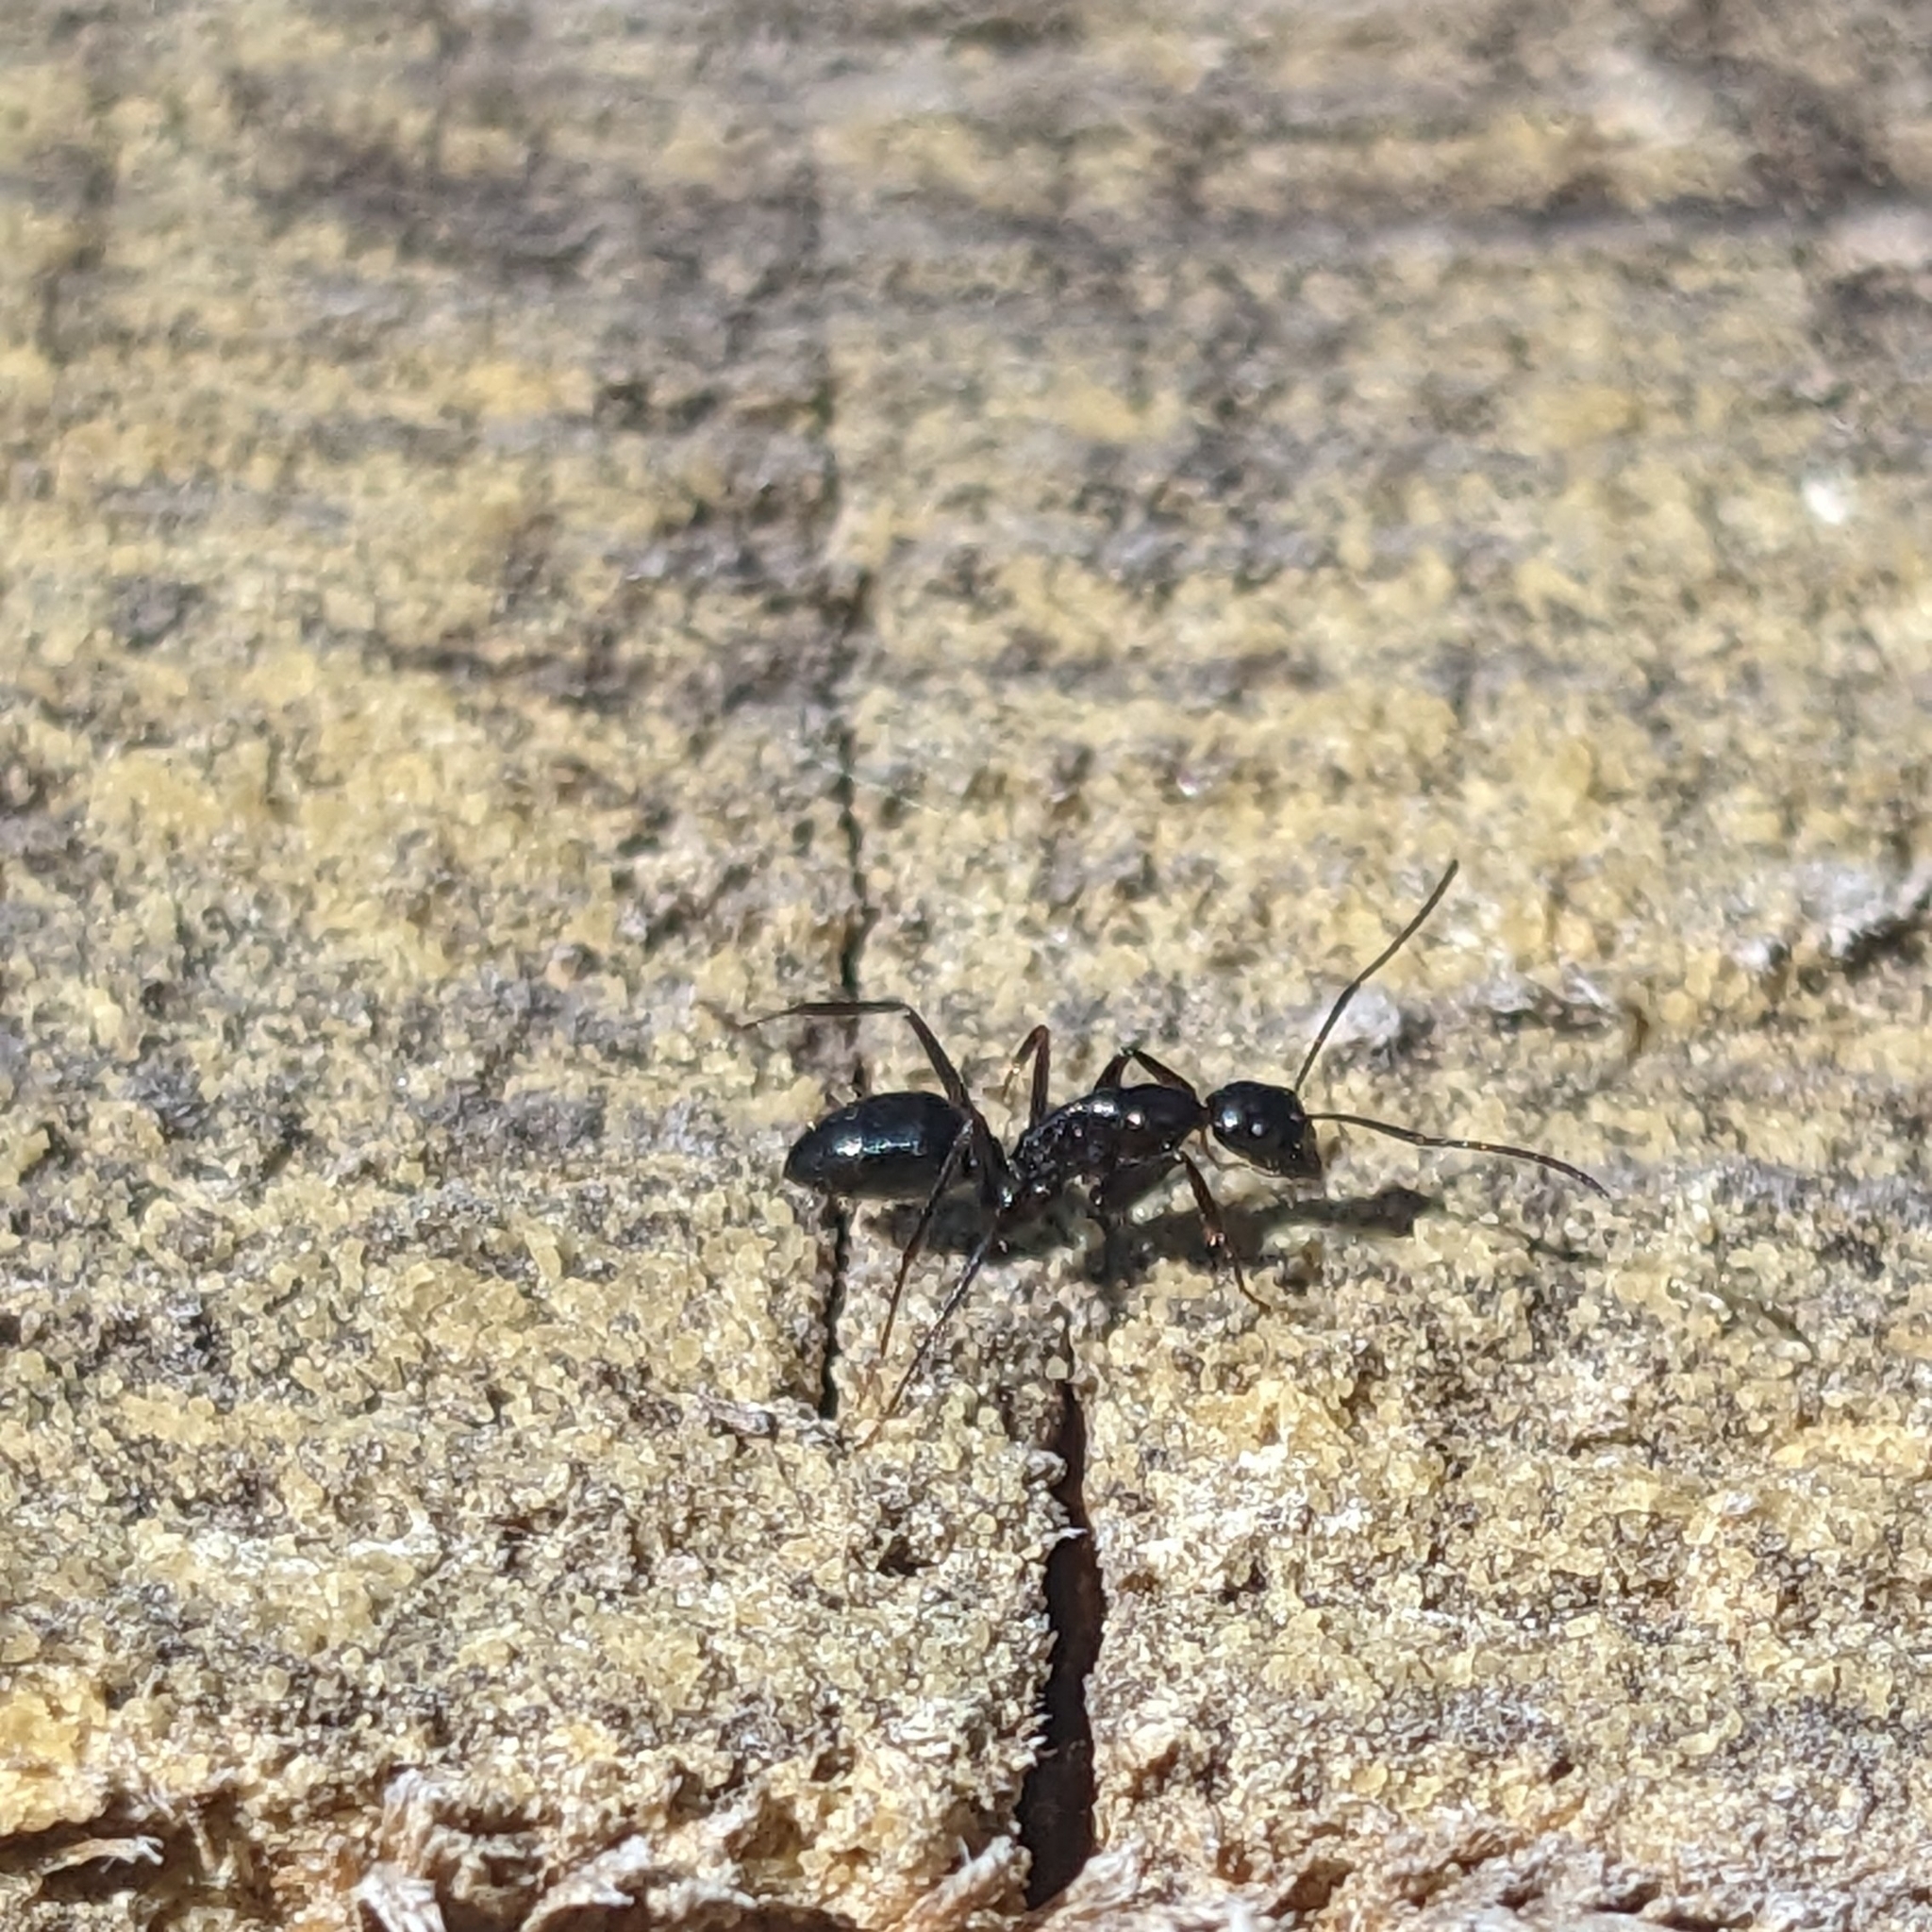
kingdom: Animalia
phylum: Arthropoda
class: Insecta
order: Hymenoptera
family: Formicidae
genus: Camponotus
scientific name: Camponotus aethiops
